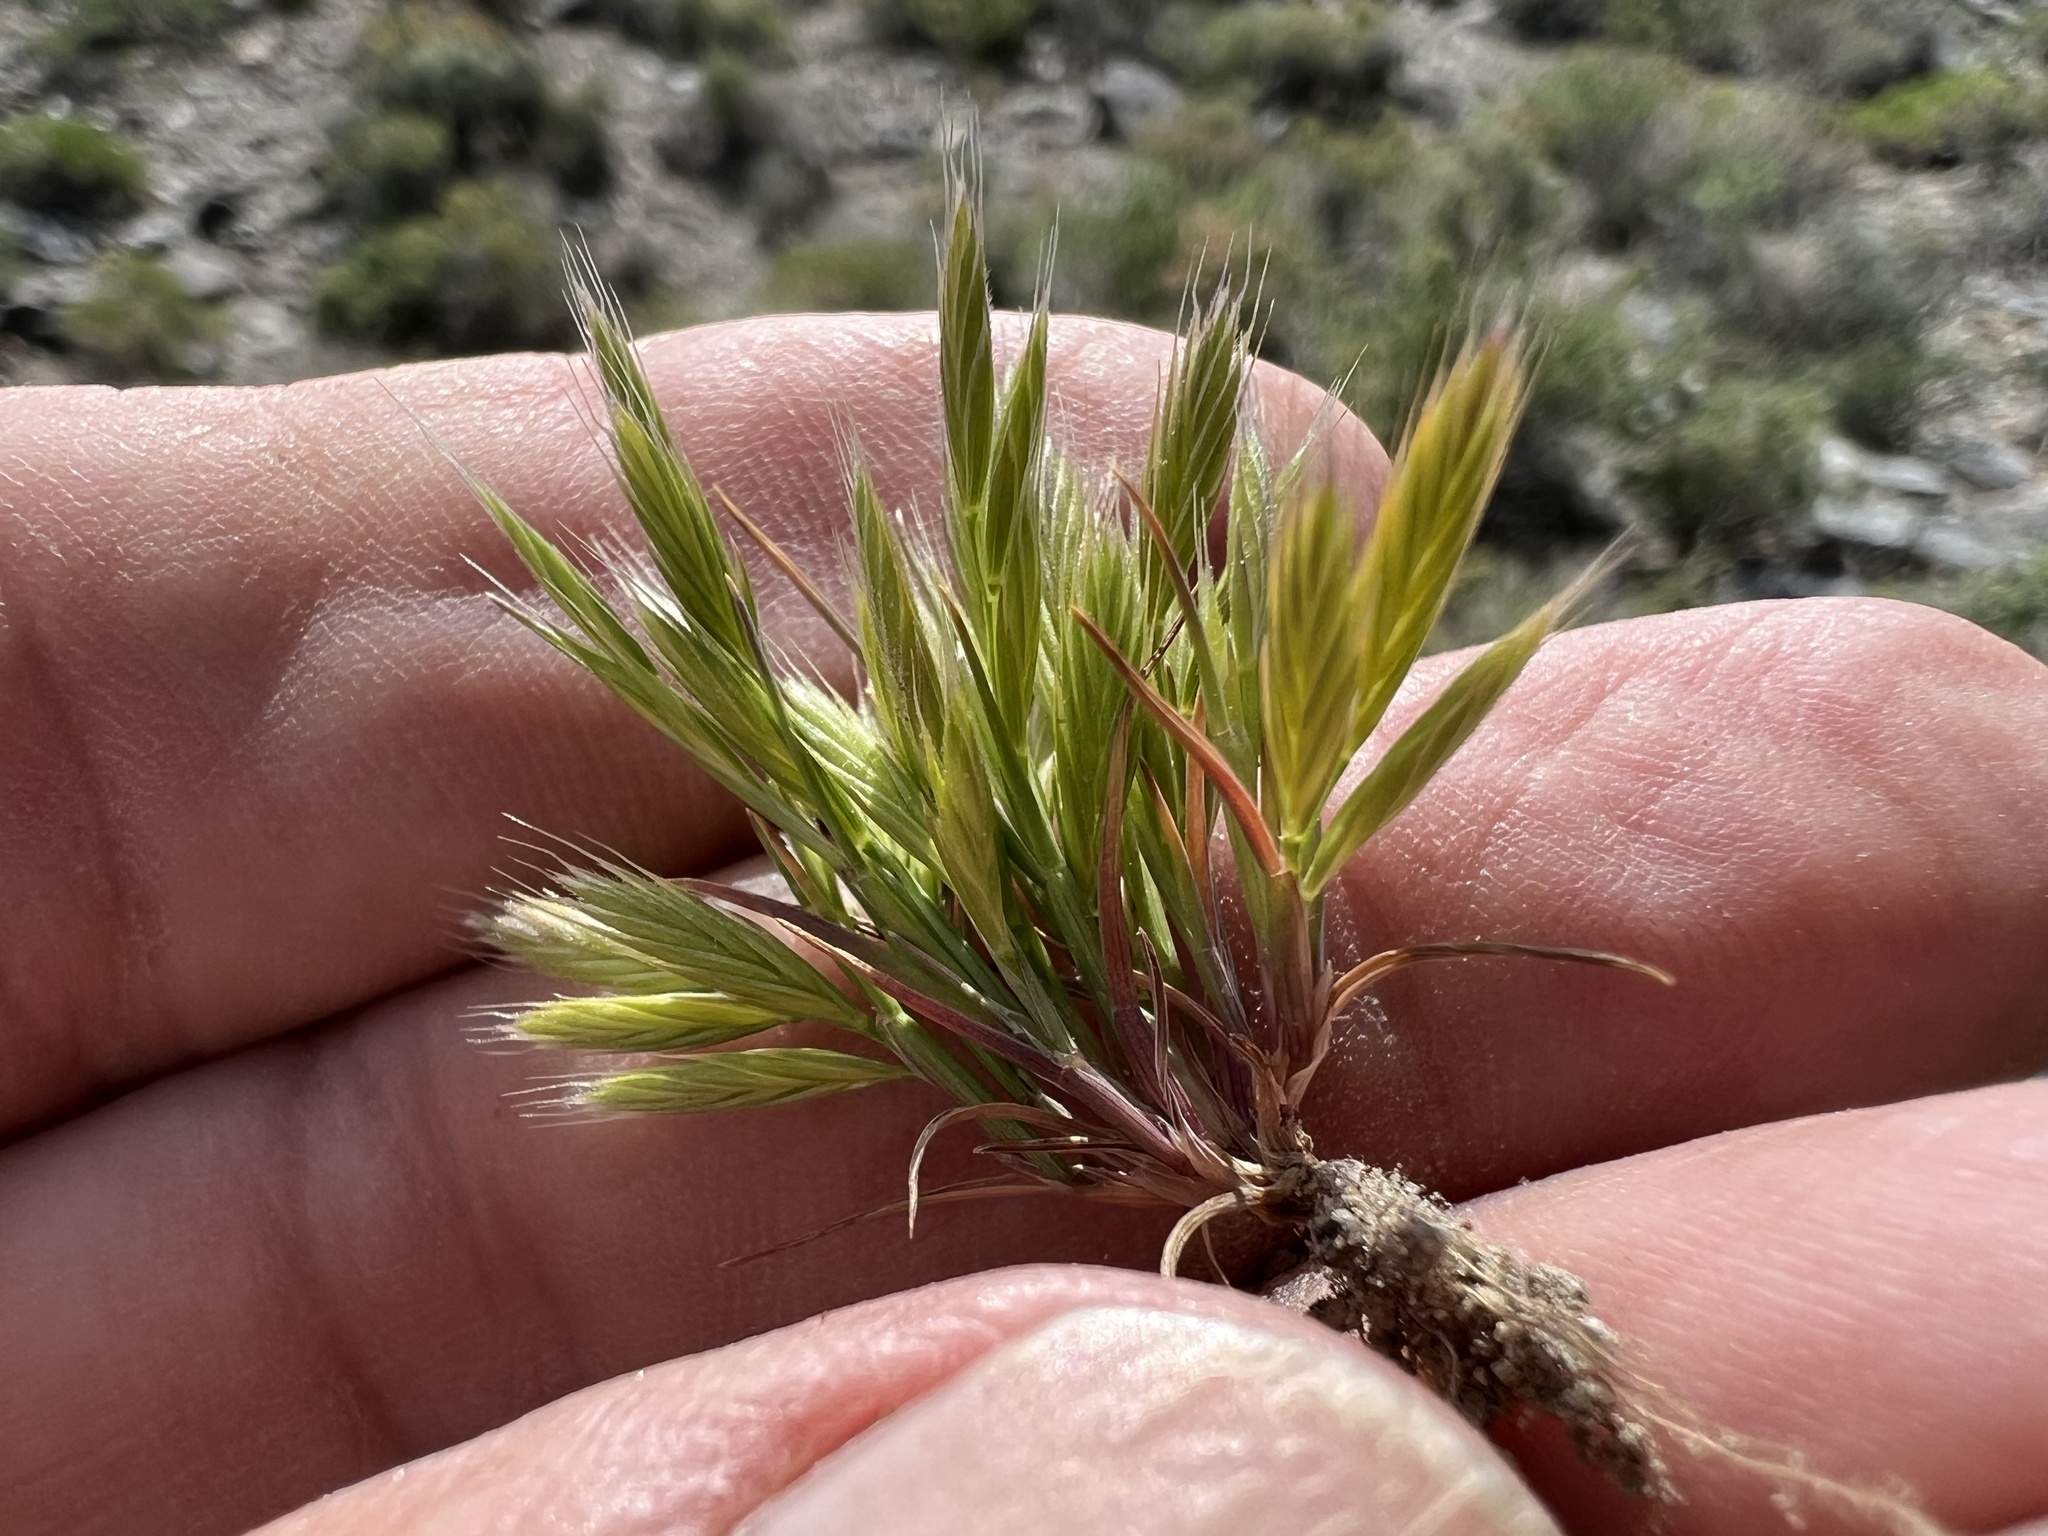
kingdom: Plantae
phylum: Tracheophyta
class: Liliopsida
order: Poales
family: Poaceae
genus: Festuca
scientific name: Festuca octoflora
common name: Sixweeks grass
